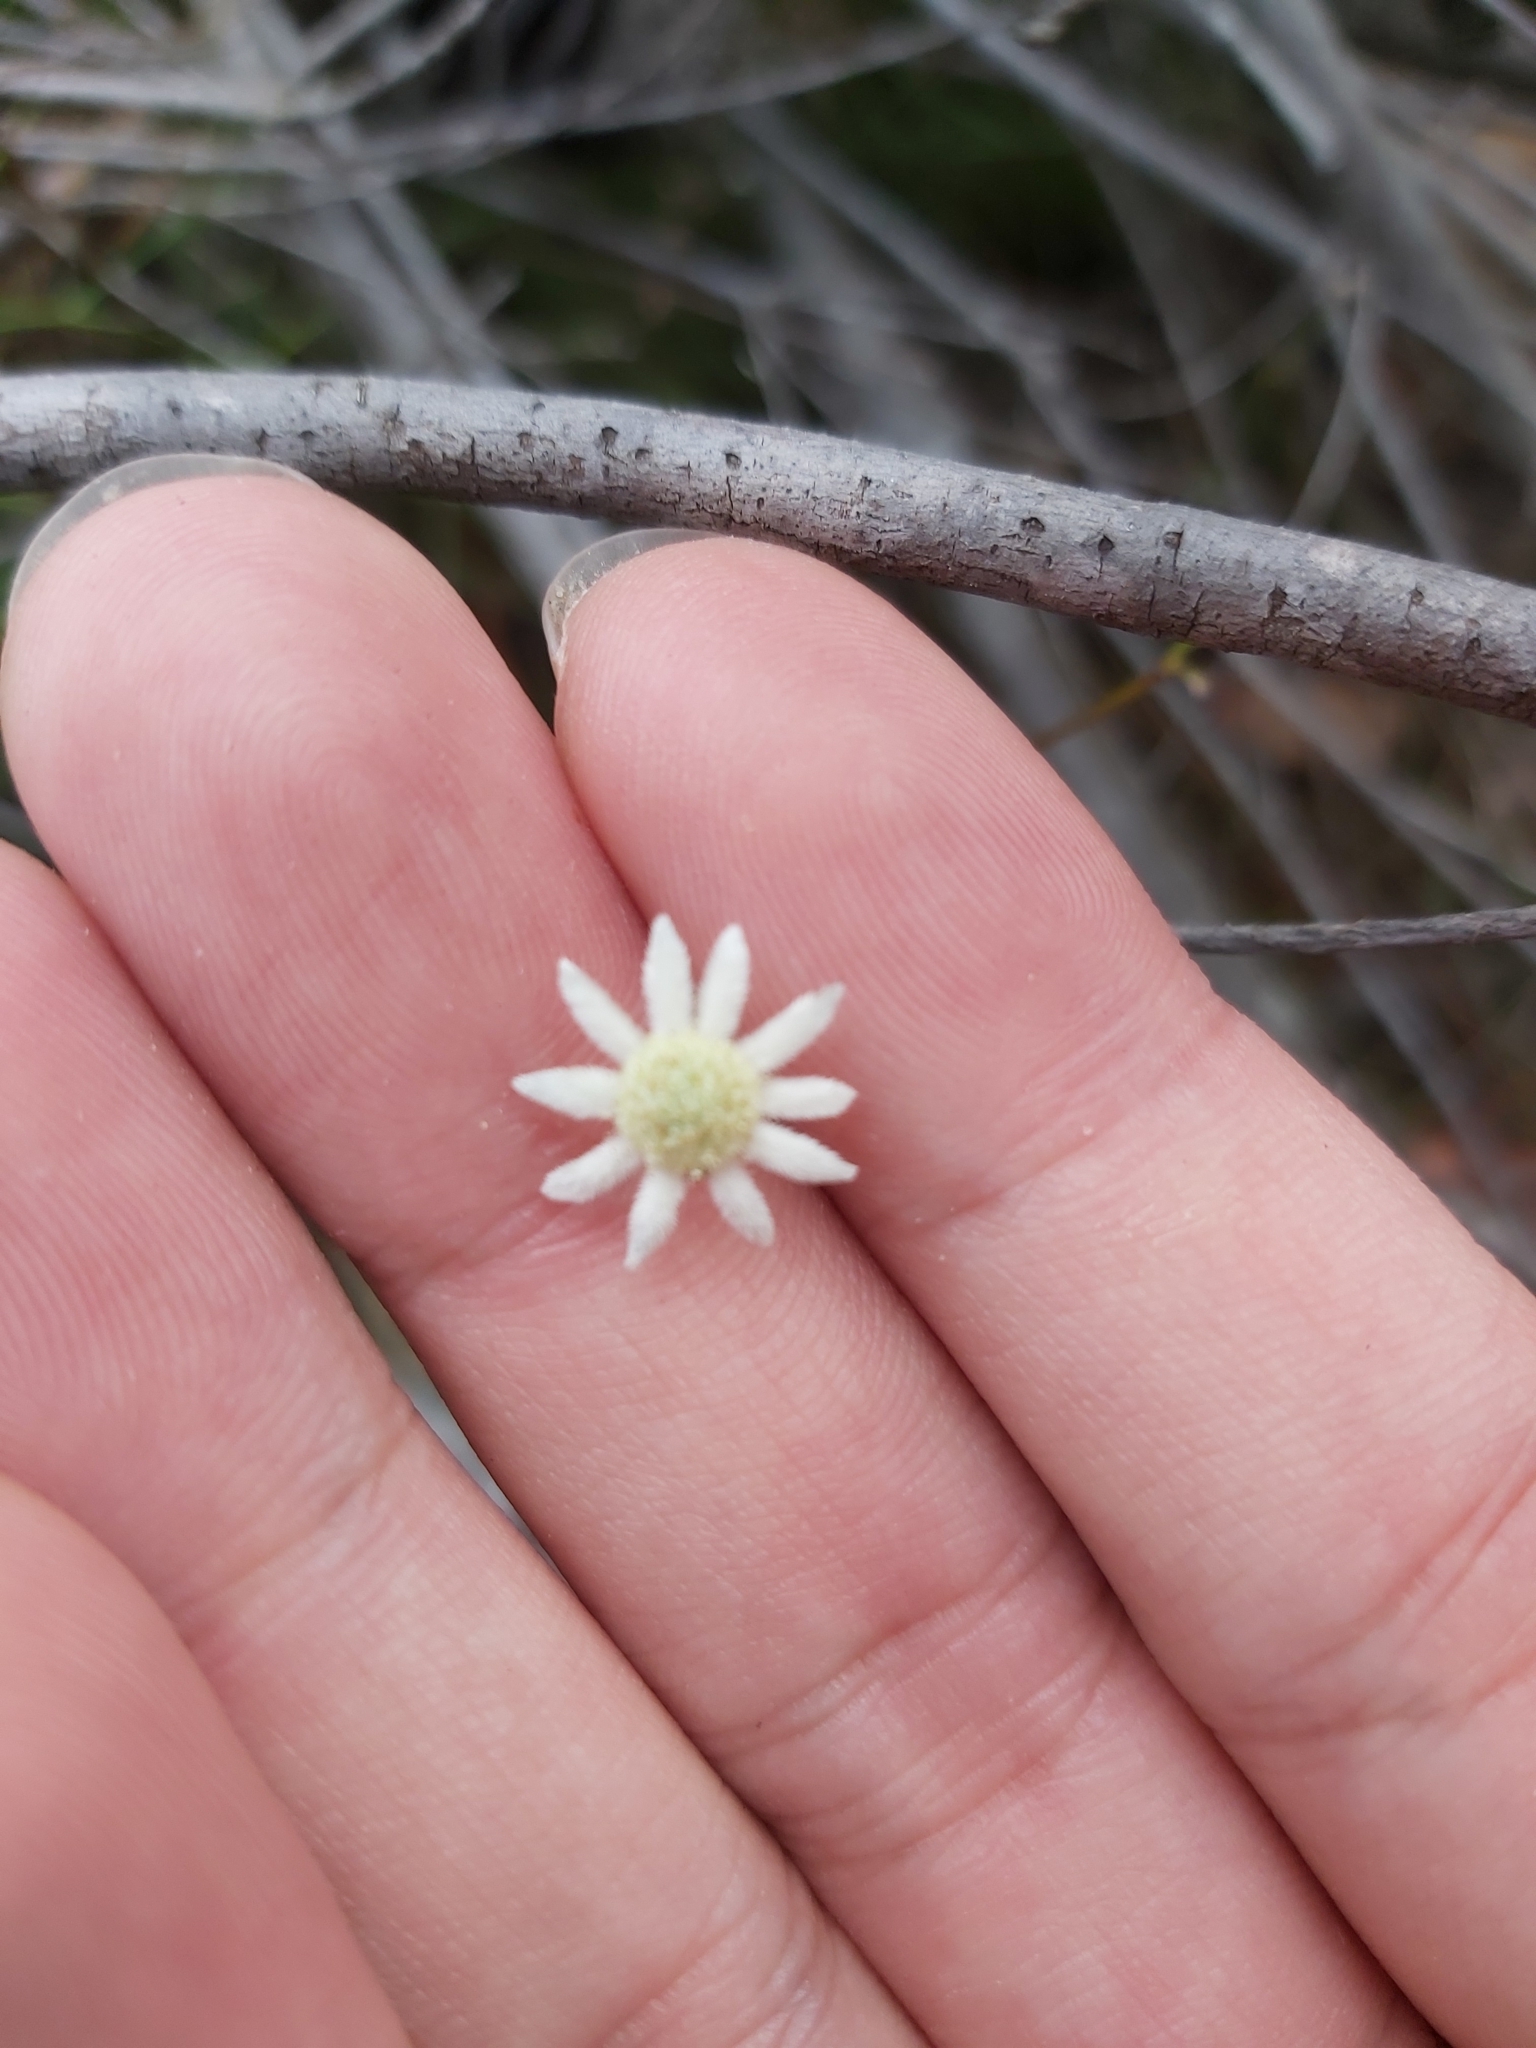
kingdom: Plantae
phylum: Tracheophyta
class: Magnoliopsida
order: Apiales
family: Apiaceae
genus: Actinotus
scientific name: Actinotus minor
